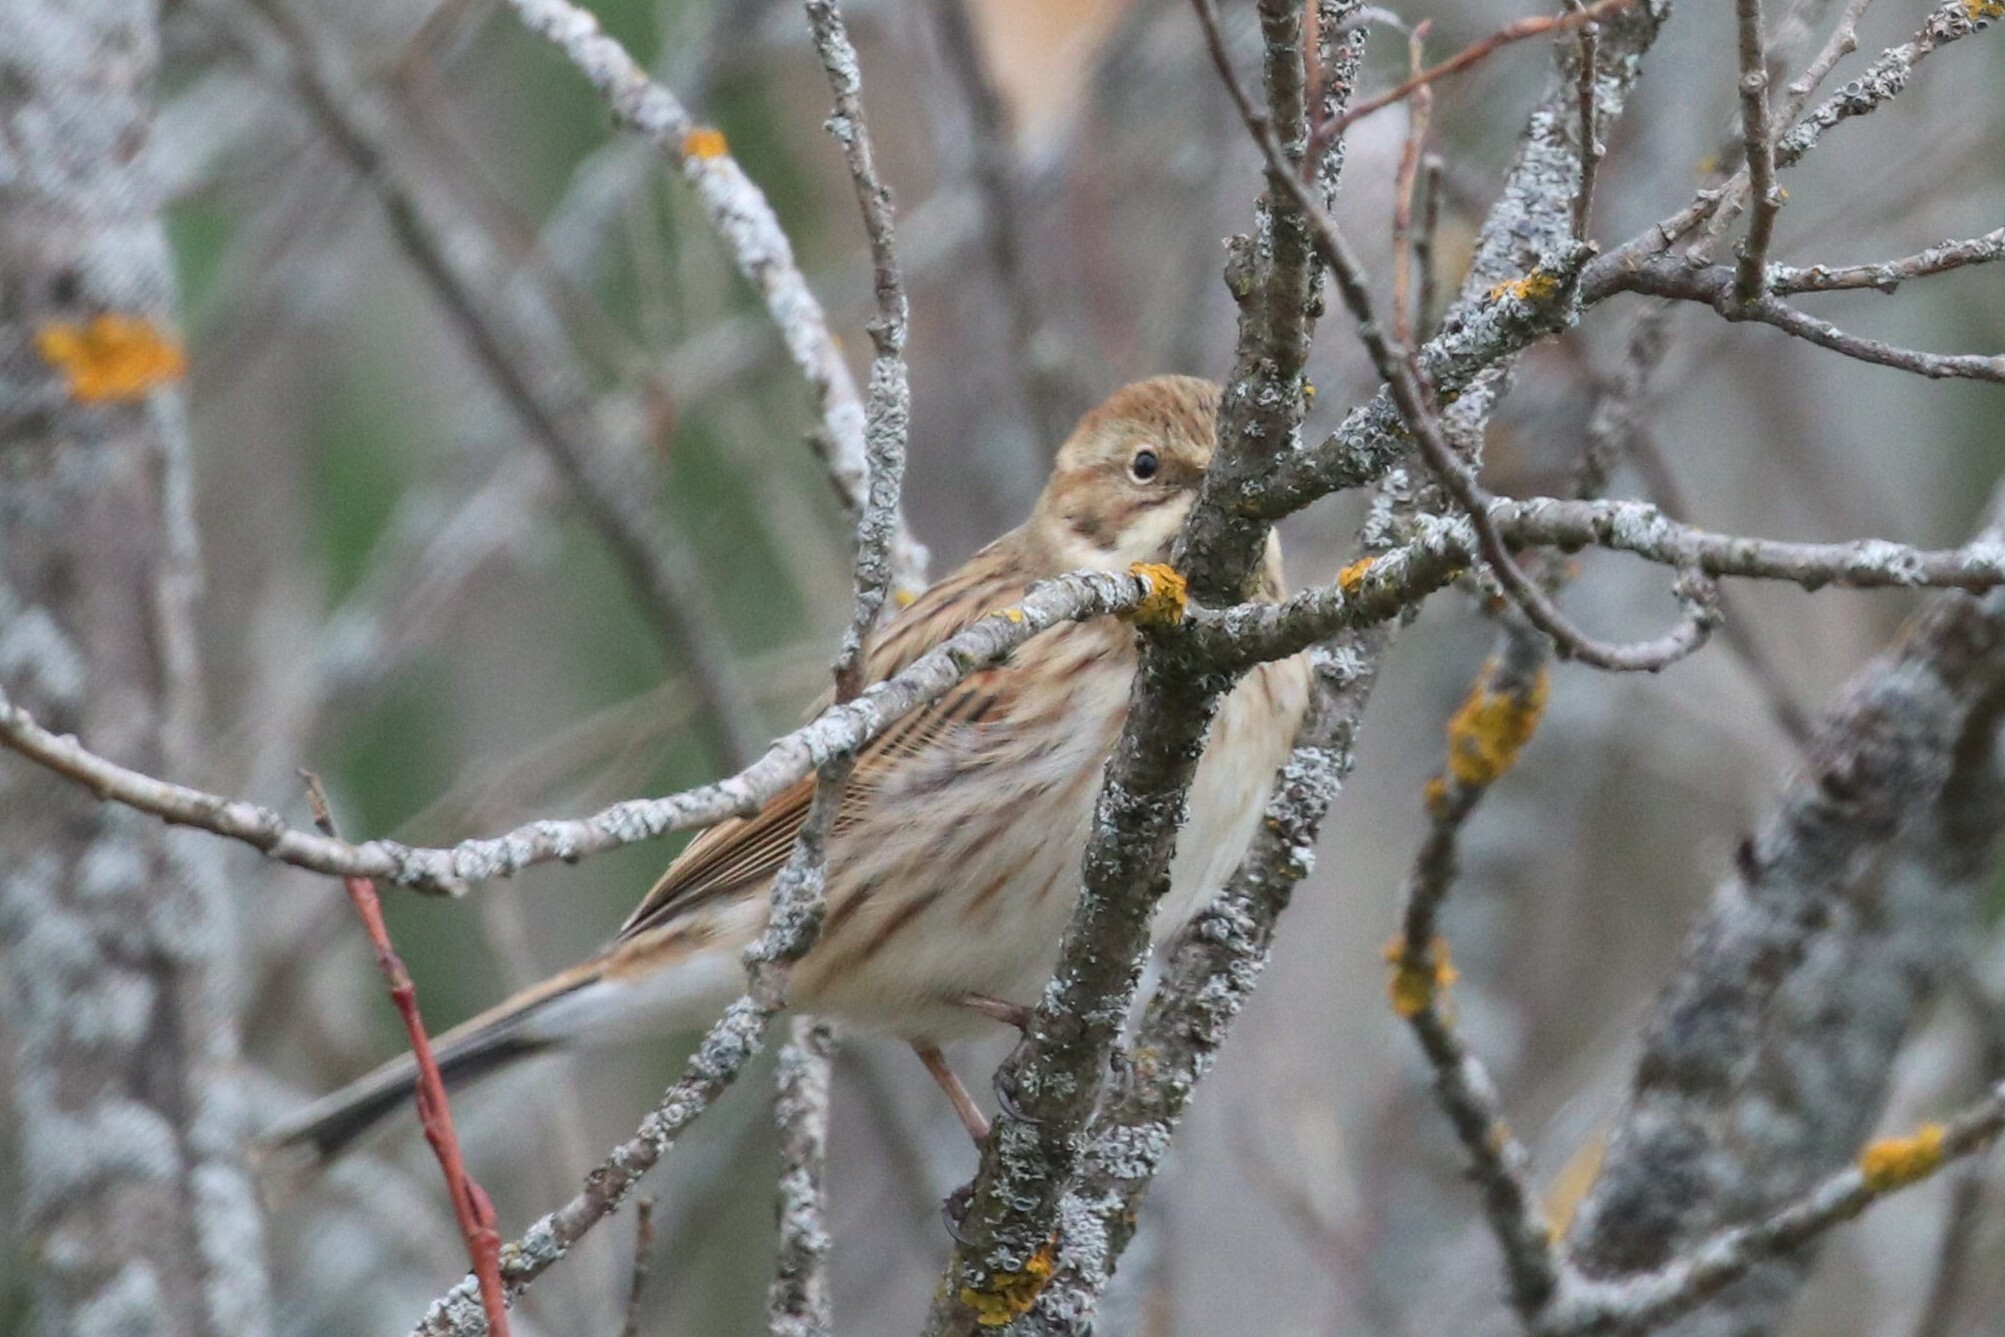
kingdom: Animalia
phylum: Chordata
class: Aves
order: Passeriformes
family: Emberizidae
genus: Emberiza
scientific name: Emberiza schoeniclus
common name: Reed bunting
